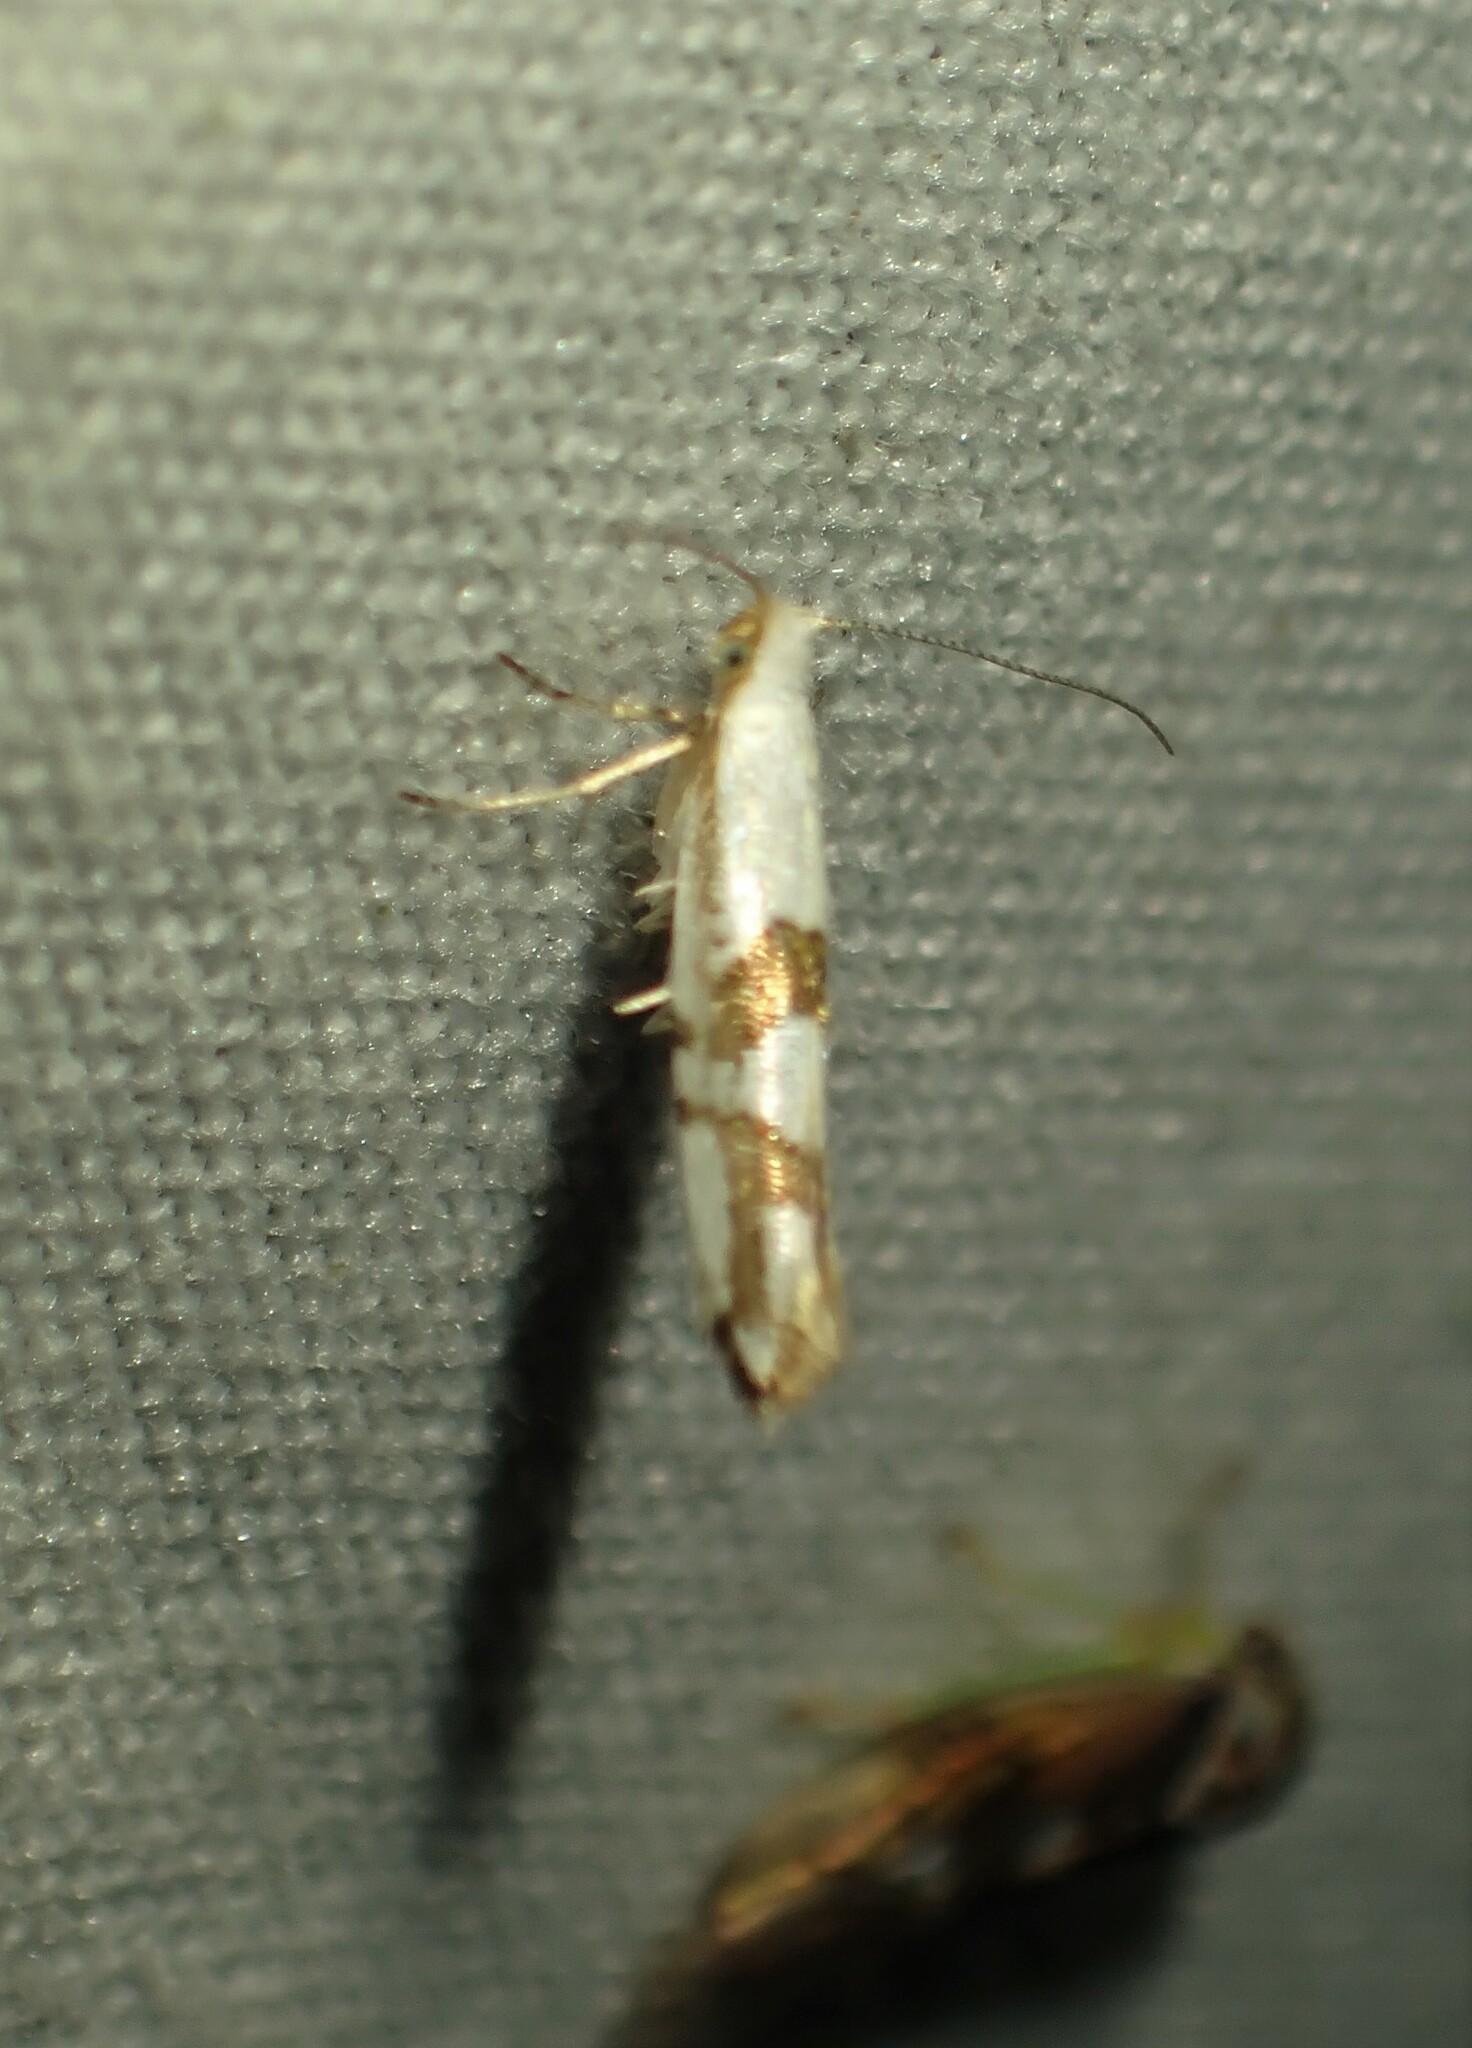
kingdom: Animalia
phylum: Arthropoda
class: Insecta
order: Lepidoptera
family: Argyresthiidae
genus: Argyresthia
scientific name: Argyresthia oreasella
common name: Cherry shoot borer moth
